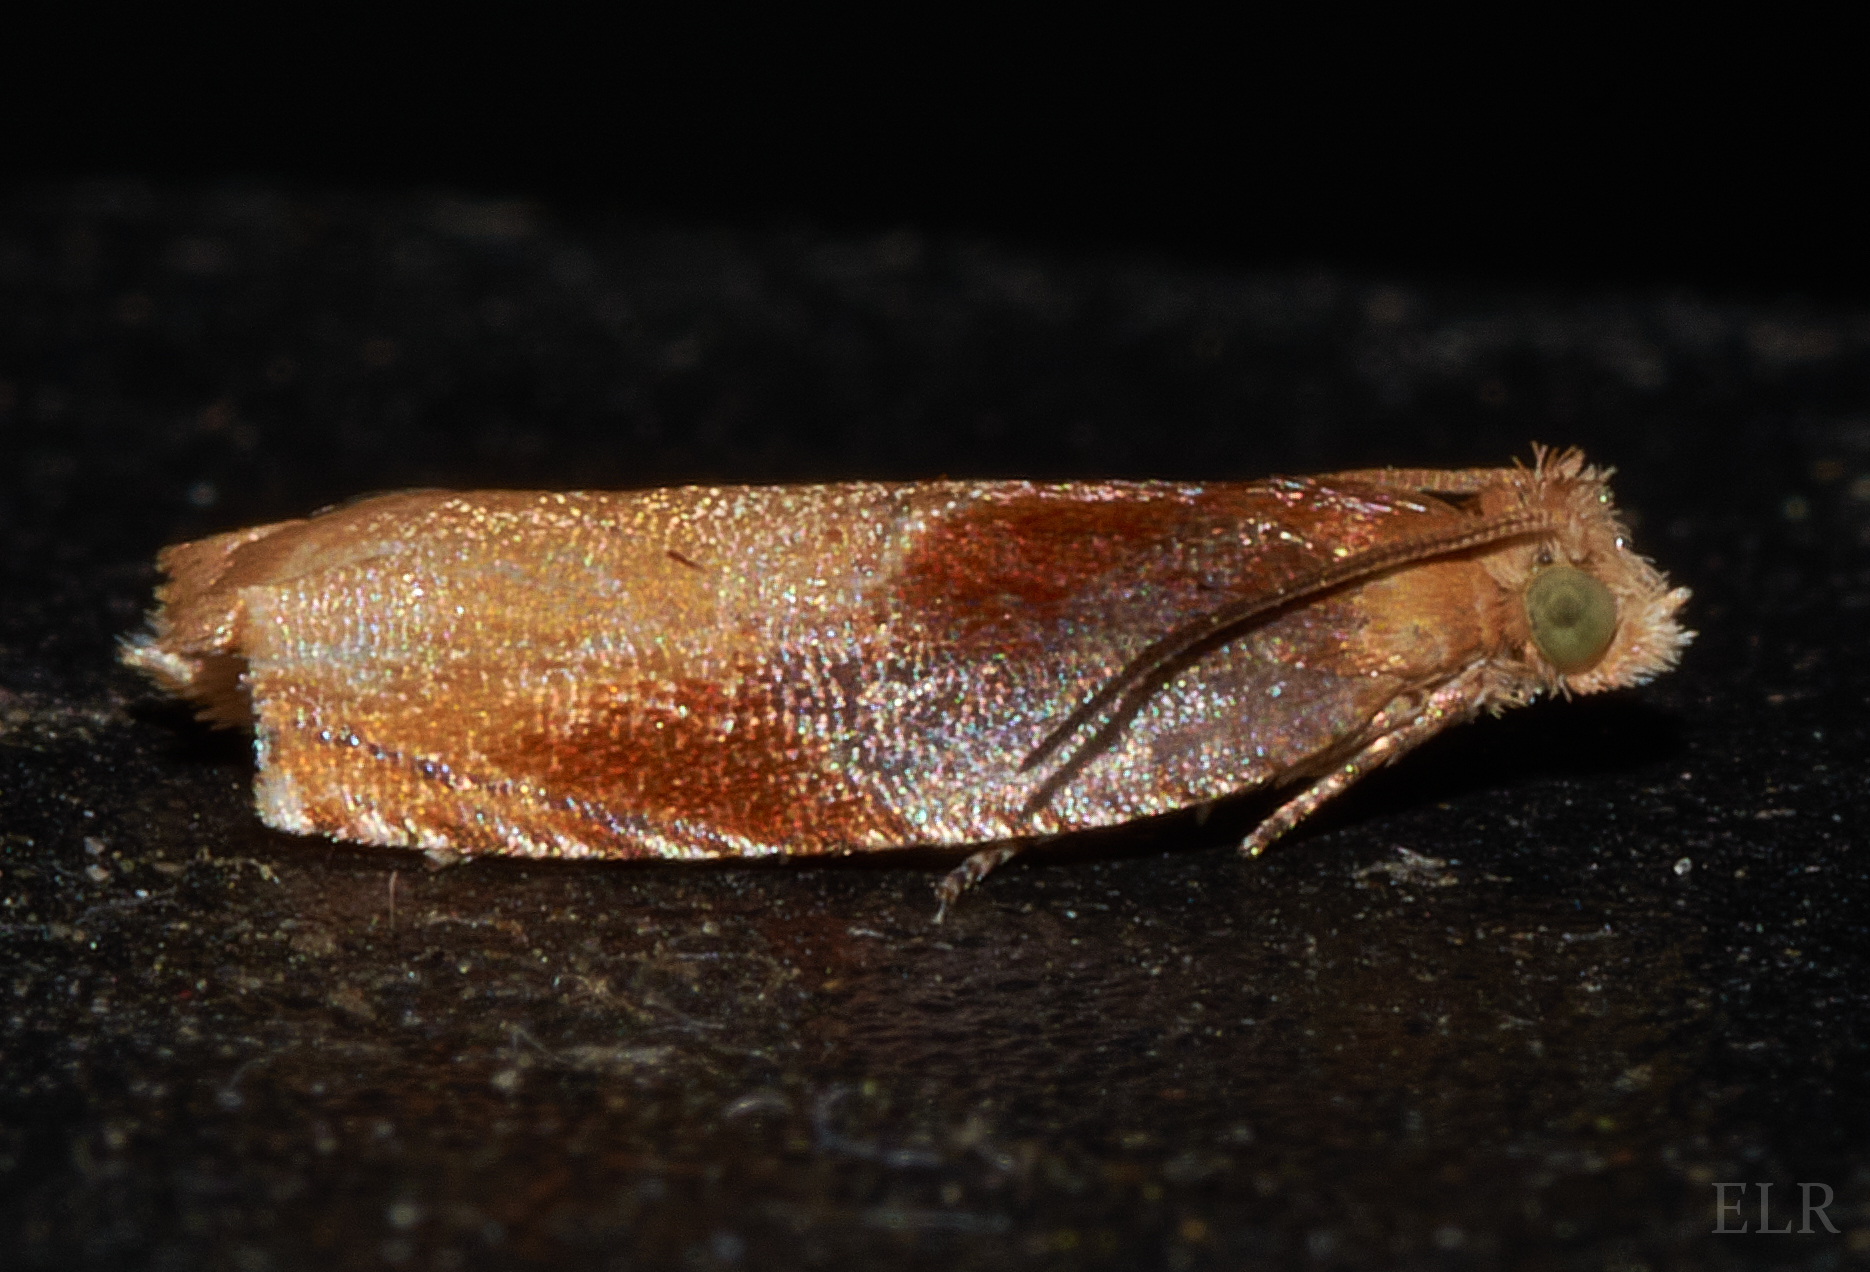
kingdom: Animalia
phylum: Arthropoda
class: Insecta
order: Lepidoptera
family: Tortricidae
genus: Ancylis
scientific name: Ancylis divisana
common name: Two-toned ancylis moth
